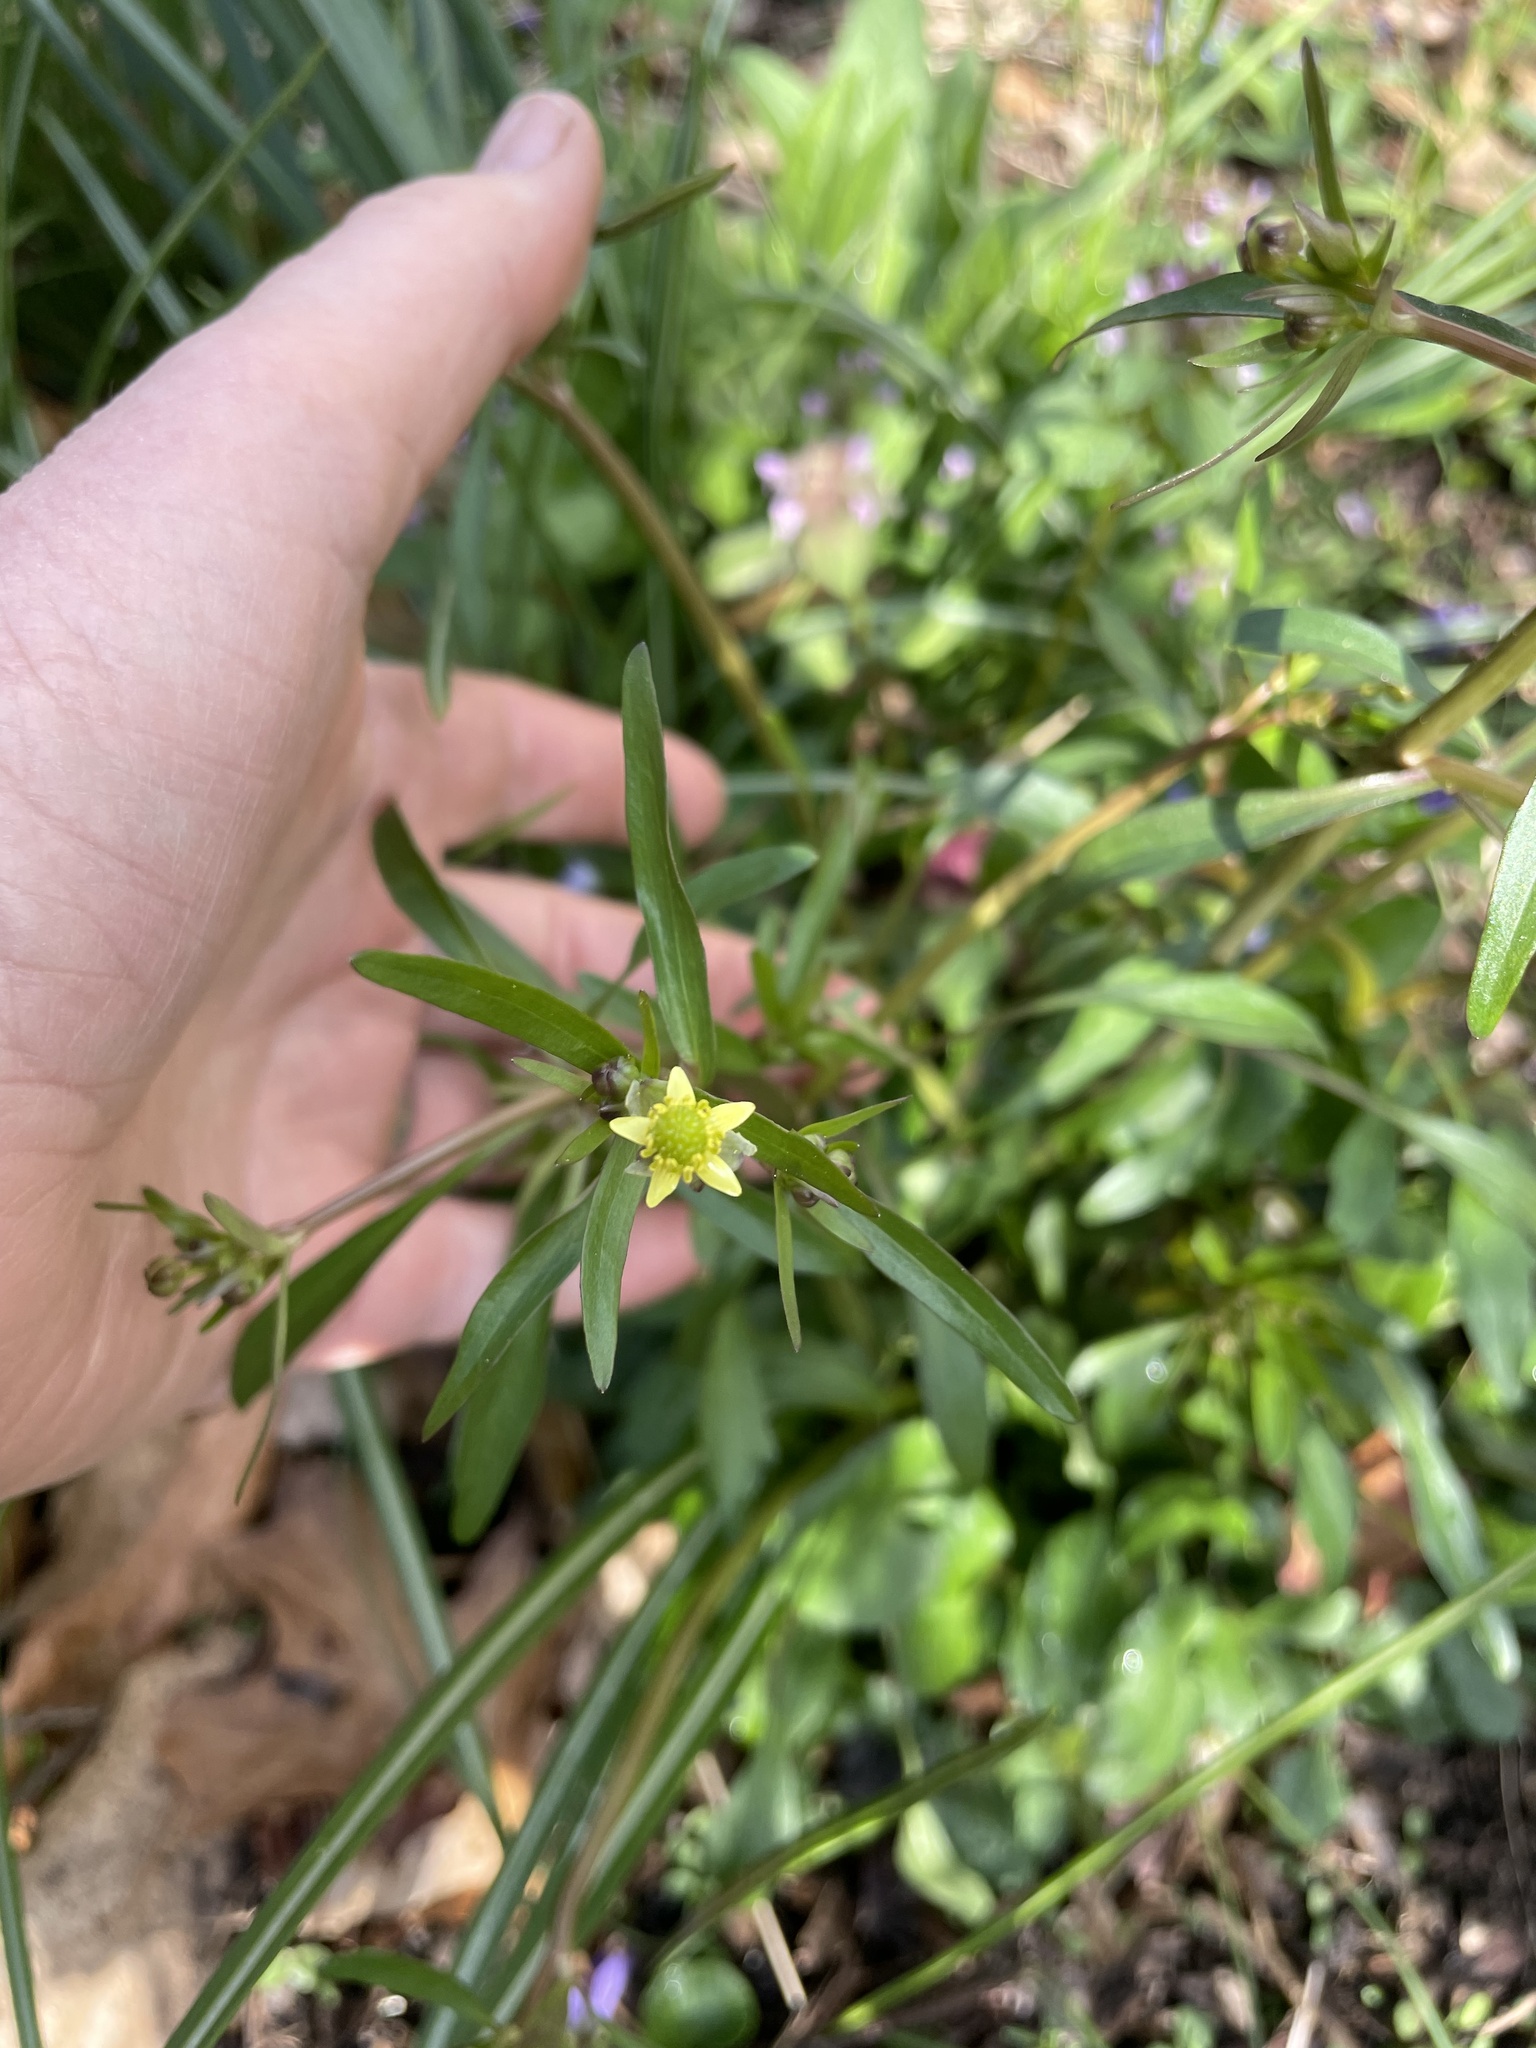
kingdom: Plantae
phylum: Tracheophyta
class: Magnoliopsida
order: Ranunculales
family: Ranunculaceae
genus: Ranunculus
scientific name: Ranunculus abortivus
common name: Early wood buttercup
